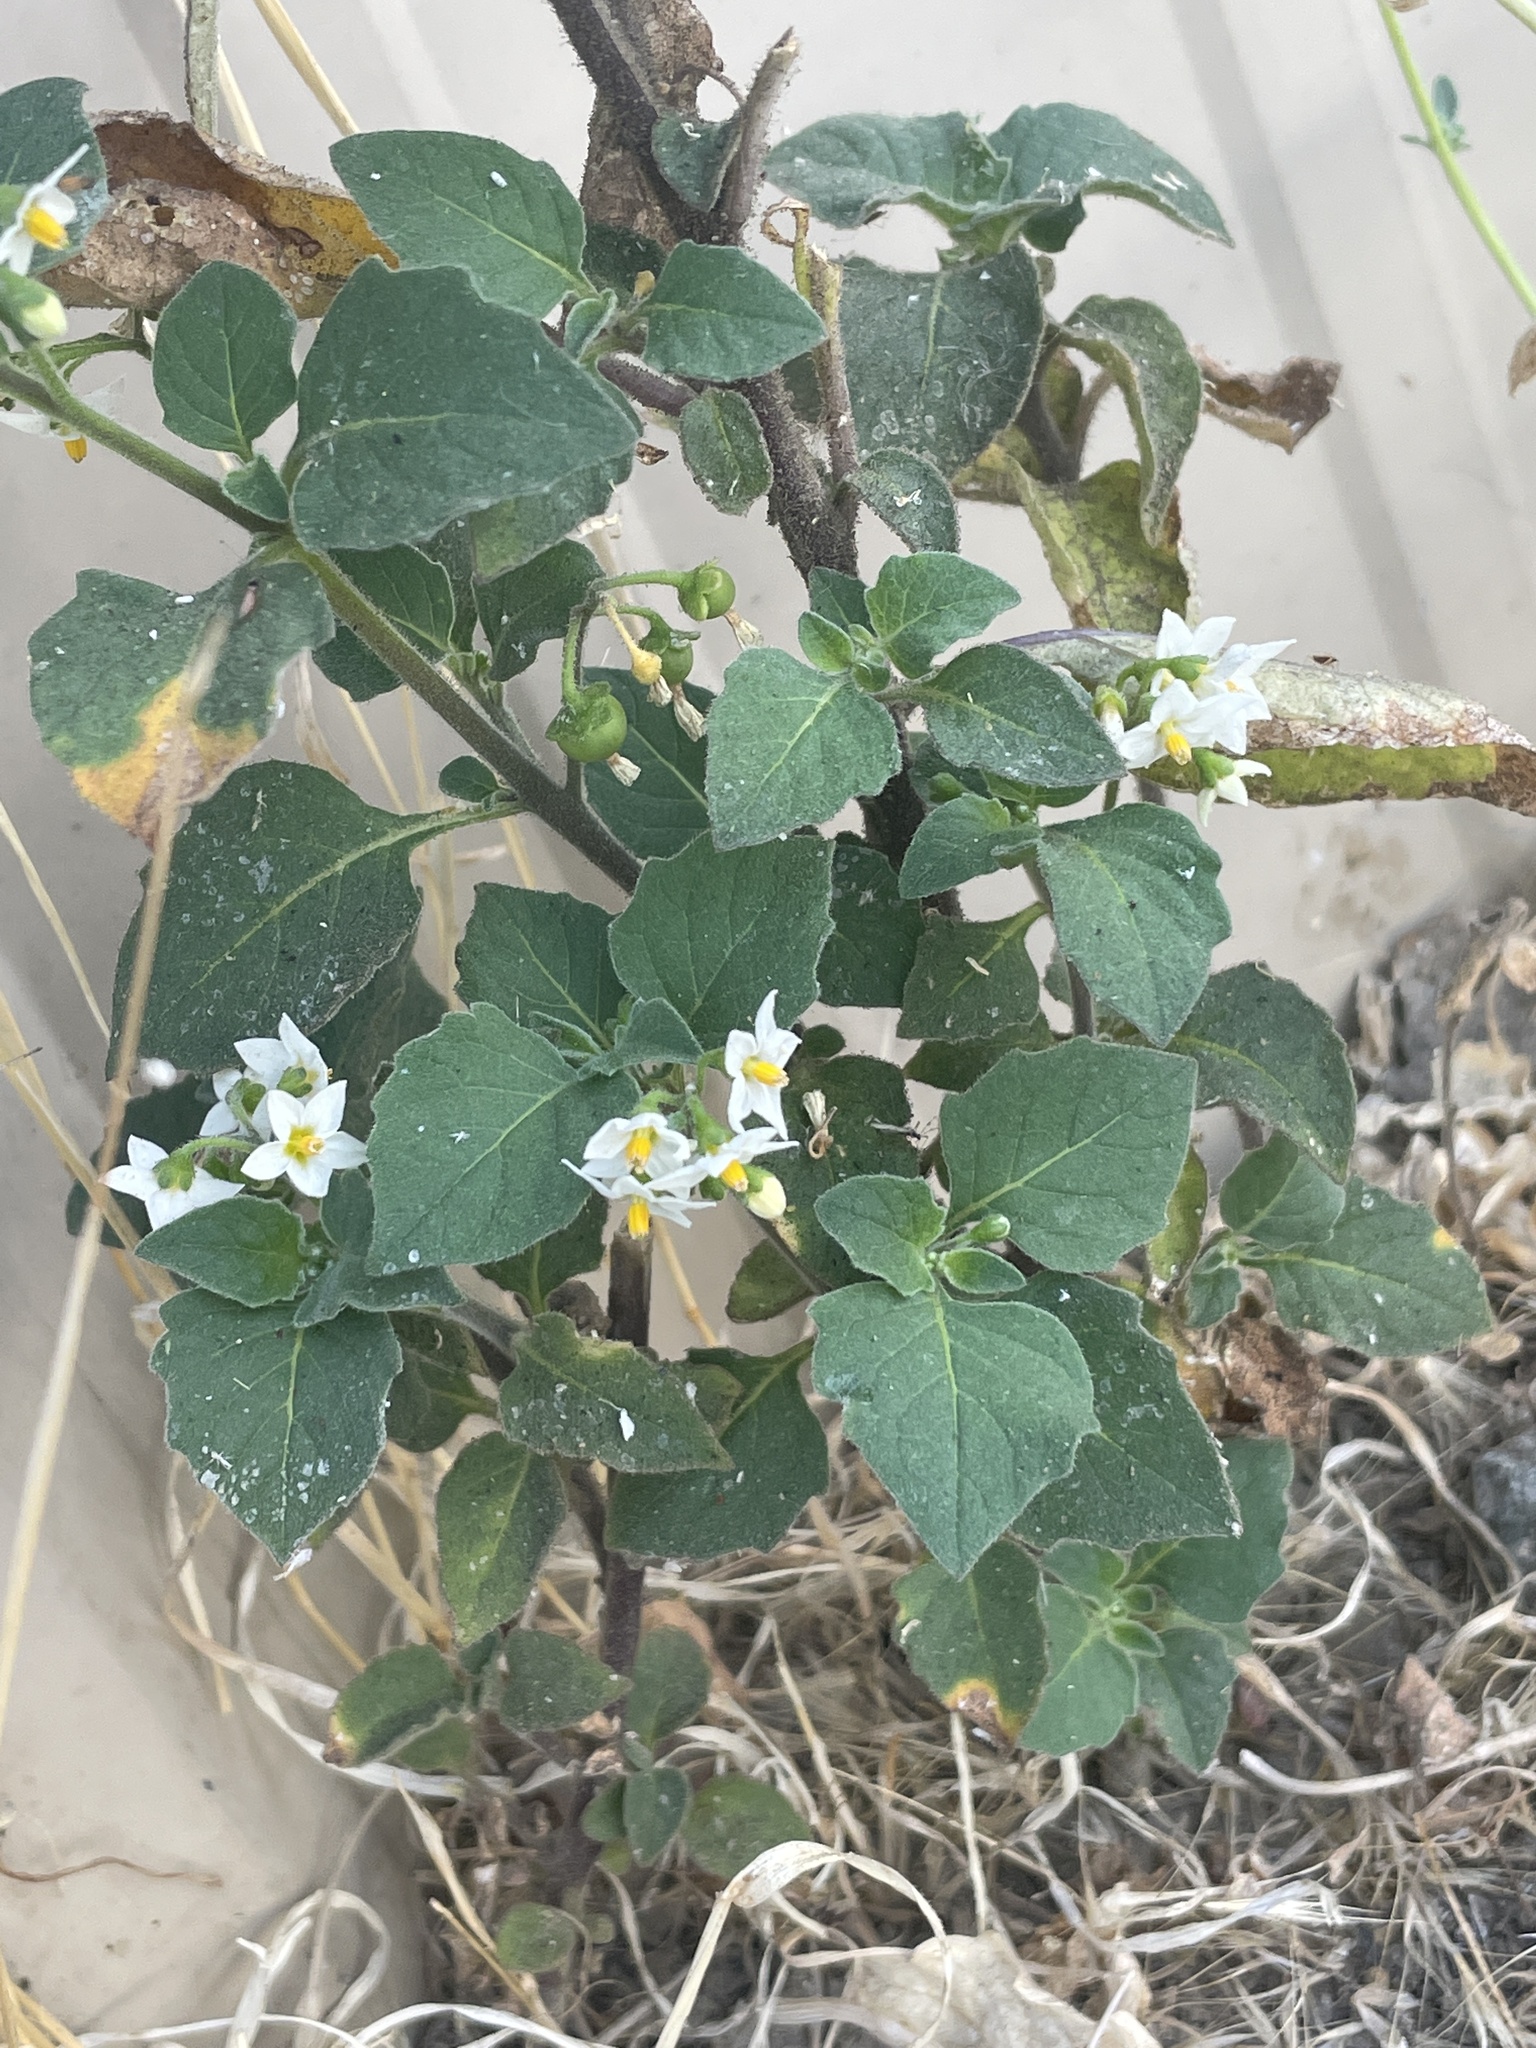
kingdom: Plantae
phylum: Tracheophyta
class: Magnoliopsida
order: Solanales
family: Solanaceae
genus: Solanum
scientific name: Solanum nigrum
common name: Black nightshade
